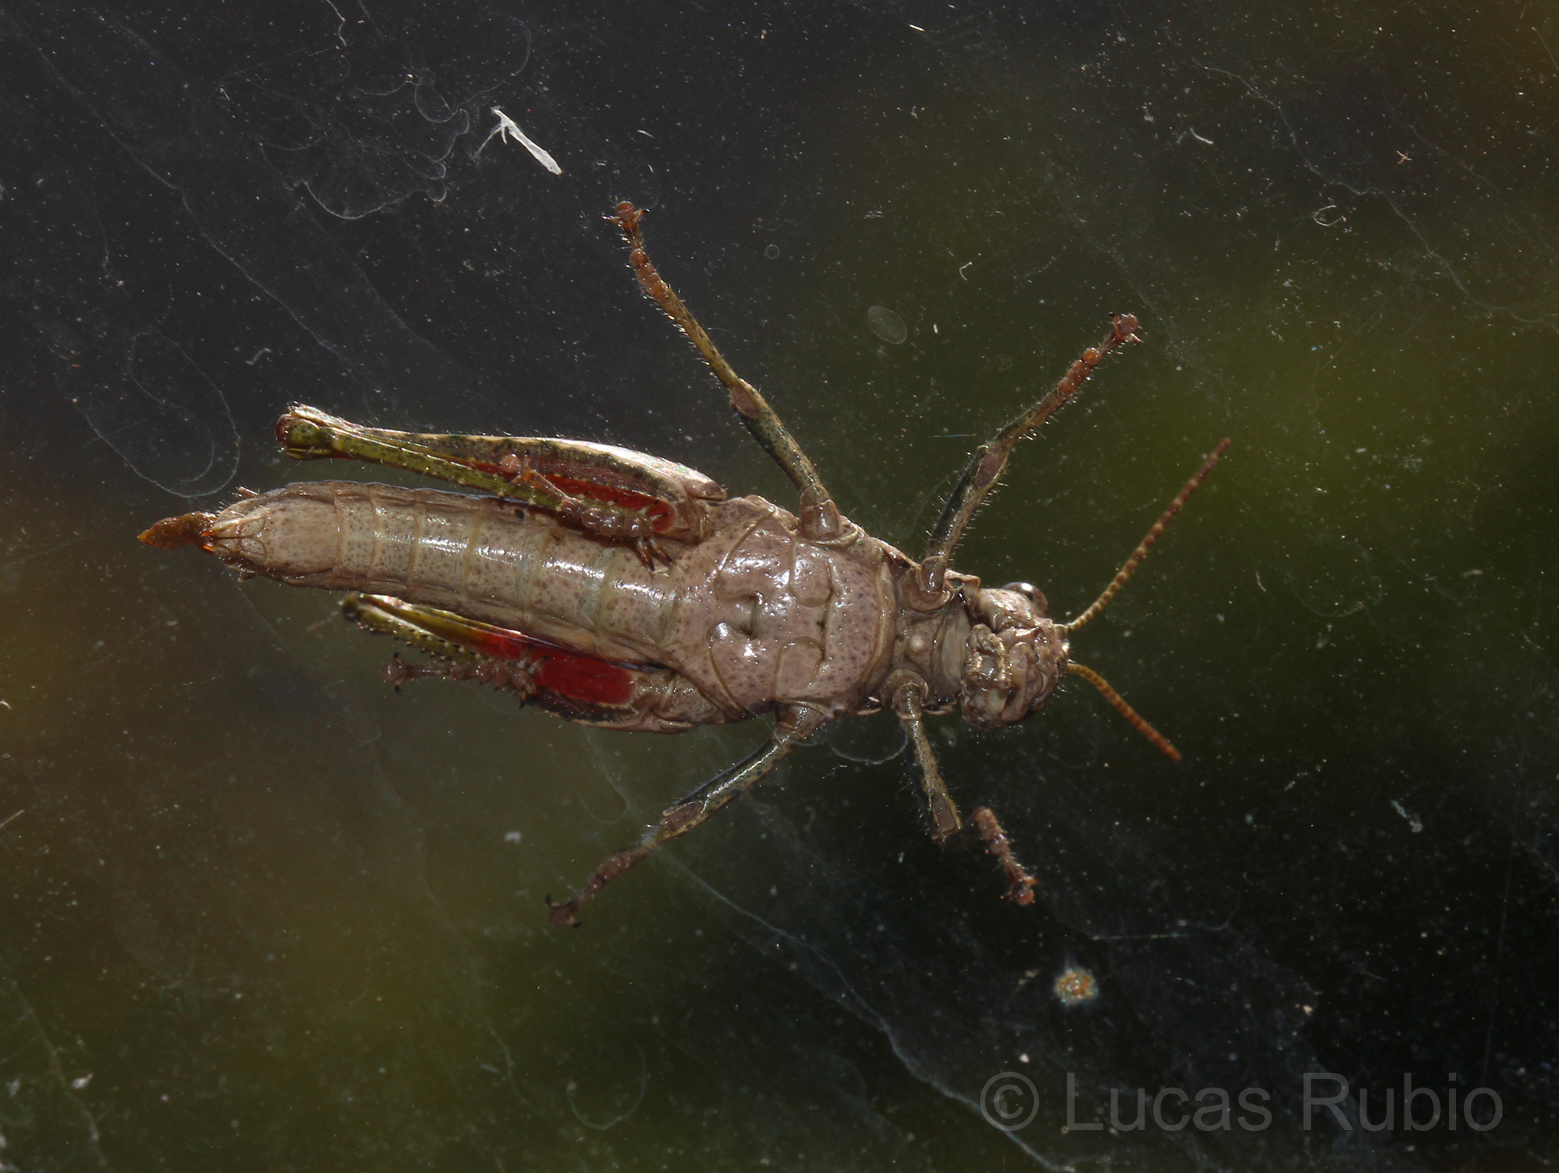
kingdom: Animalia
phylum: Arthropoda
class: Insecta
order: Orthoptera
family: Acrididae
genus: Ronderosia
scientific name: Ronderosia bergii
